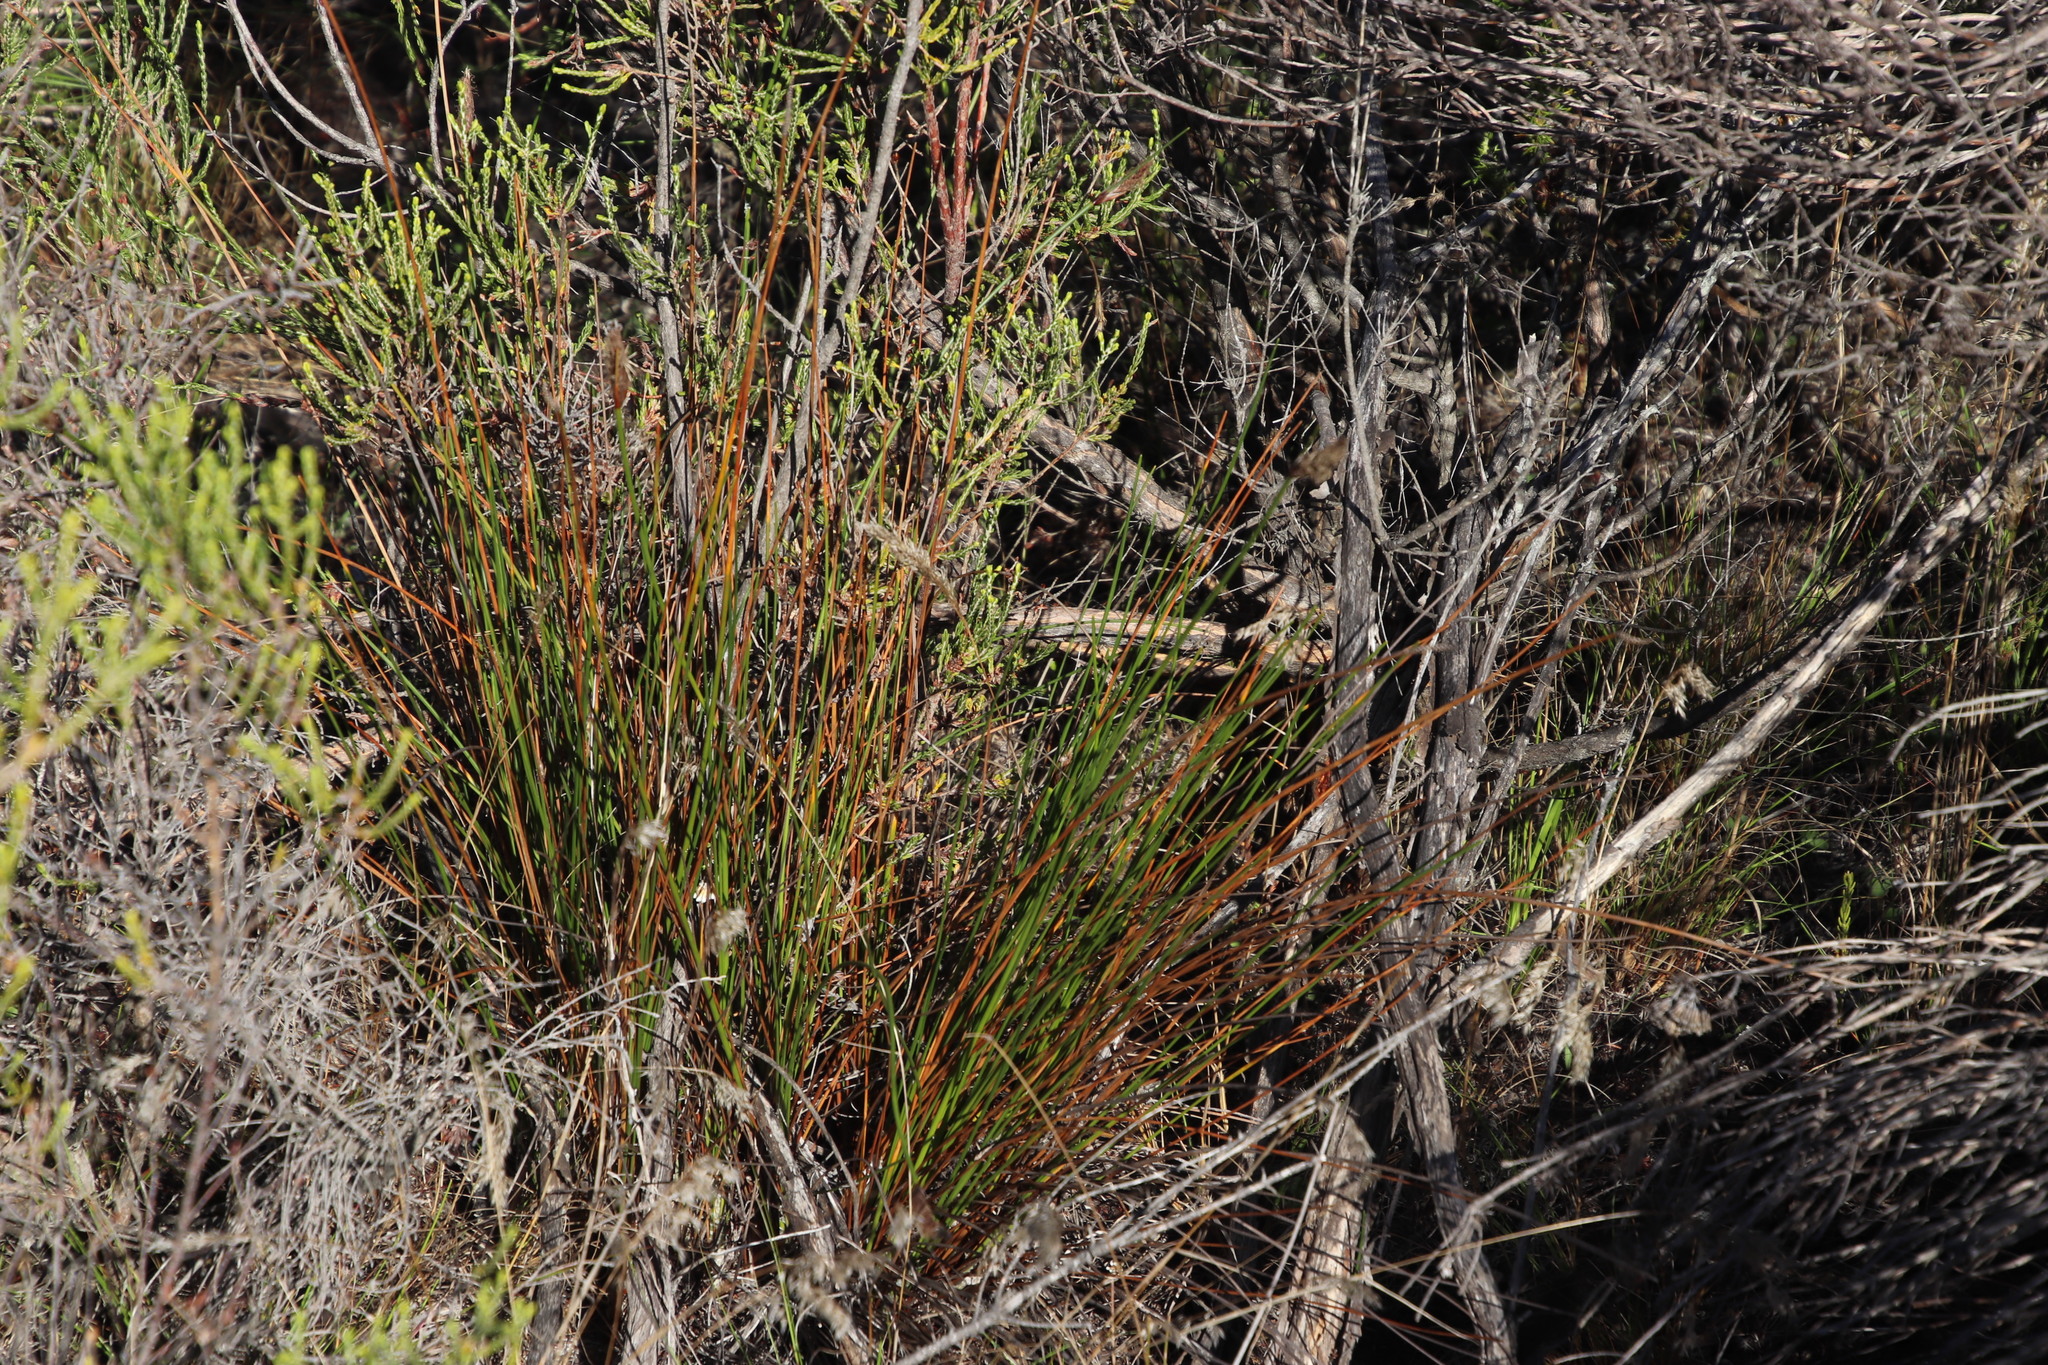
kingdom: Plantae
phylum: Tracheophyta
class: Liliopsida
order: Poales
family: Cyperaceae
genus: Ficinia
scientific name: Ficinia deusta
